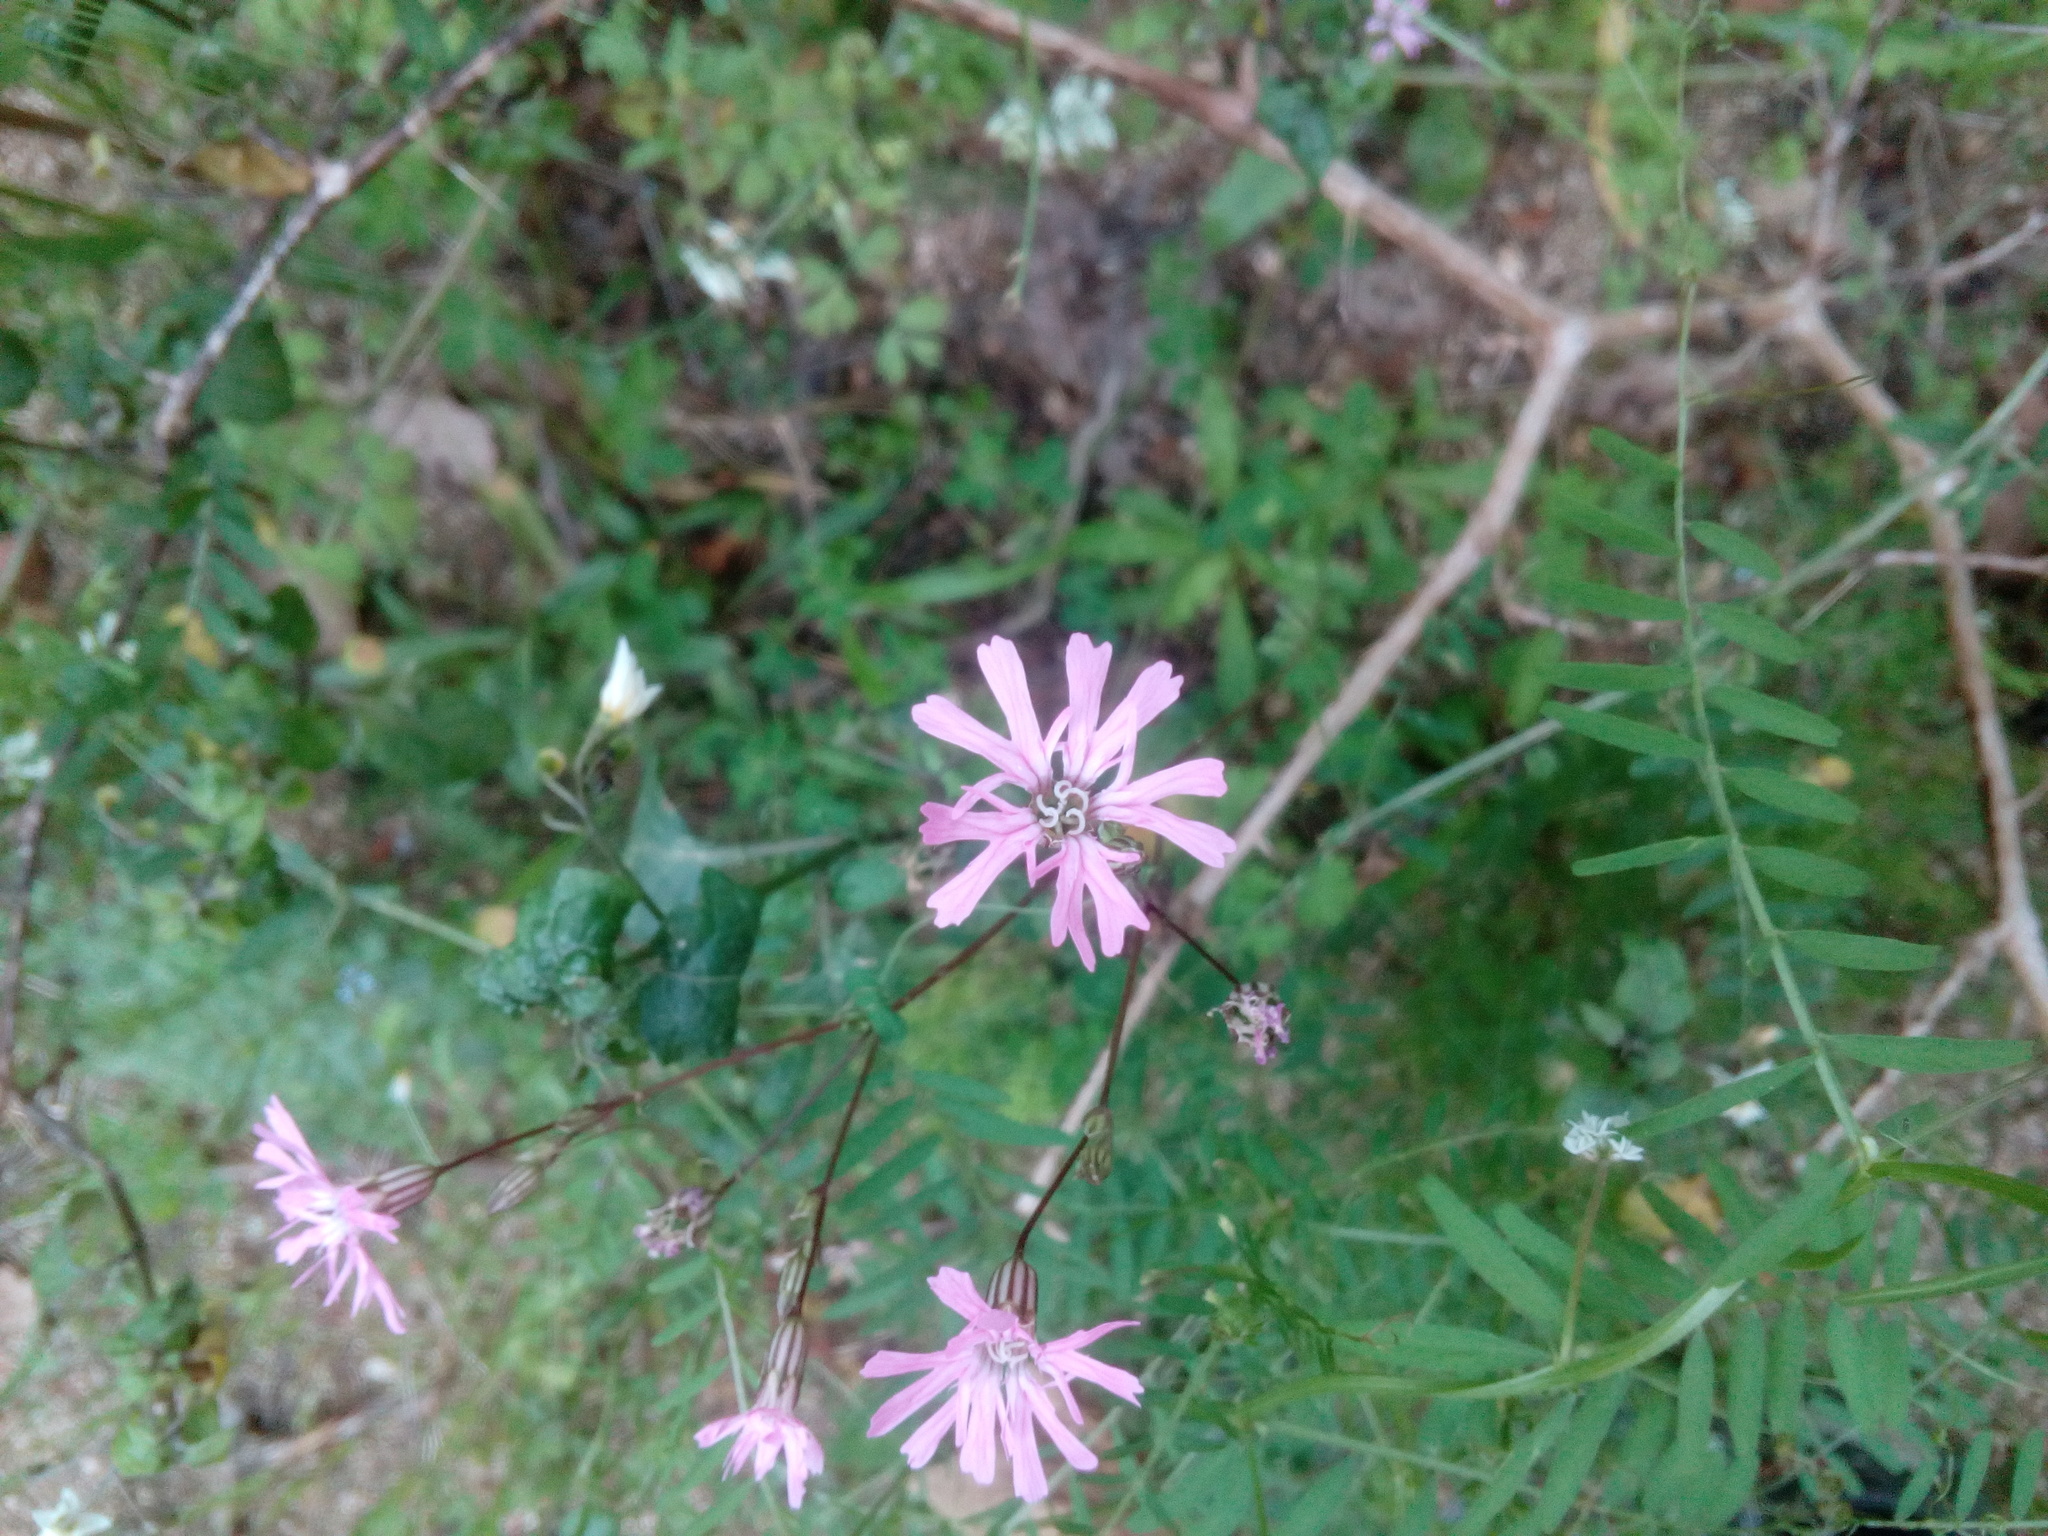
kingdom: Plantae
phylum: Tracheophyta
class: Magnoliopsida
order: Caryophyllales
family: Caryophyllaceae
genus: Silene
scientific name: Silene flos-cuculi
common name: Ragged-robin
